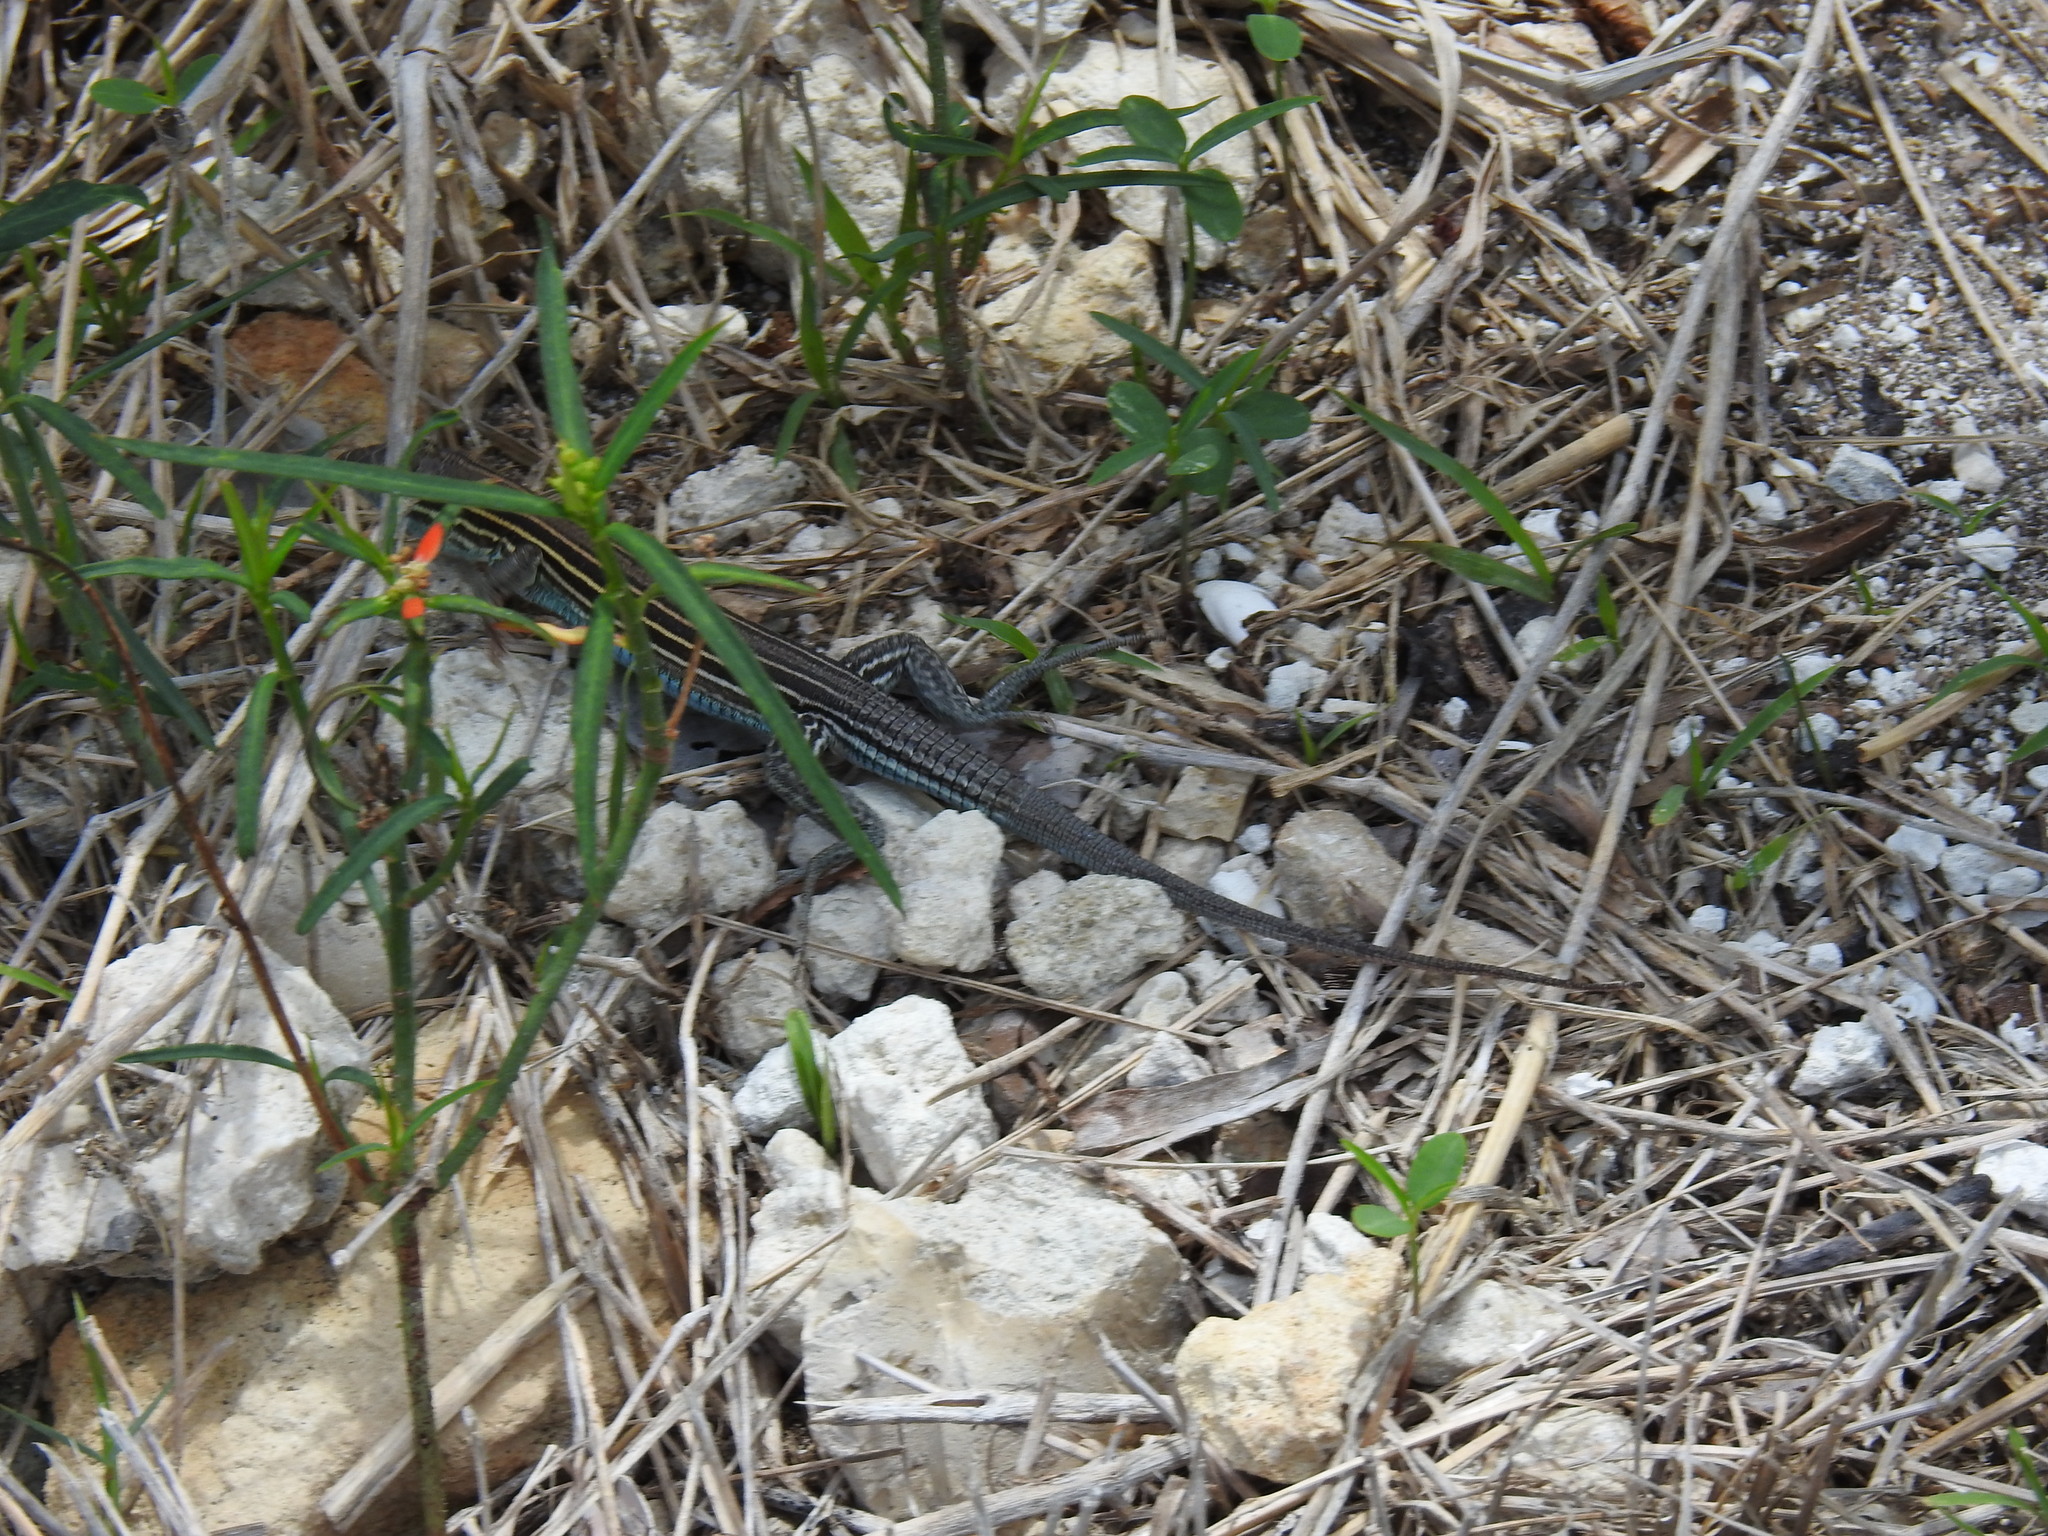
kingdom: Animalia
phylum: Chordata
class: Squamata
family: Teiidae
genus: Aspidoscelis
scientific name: Aspidoscelis sexlineatus
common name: Six-lined racerunner
